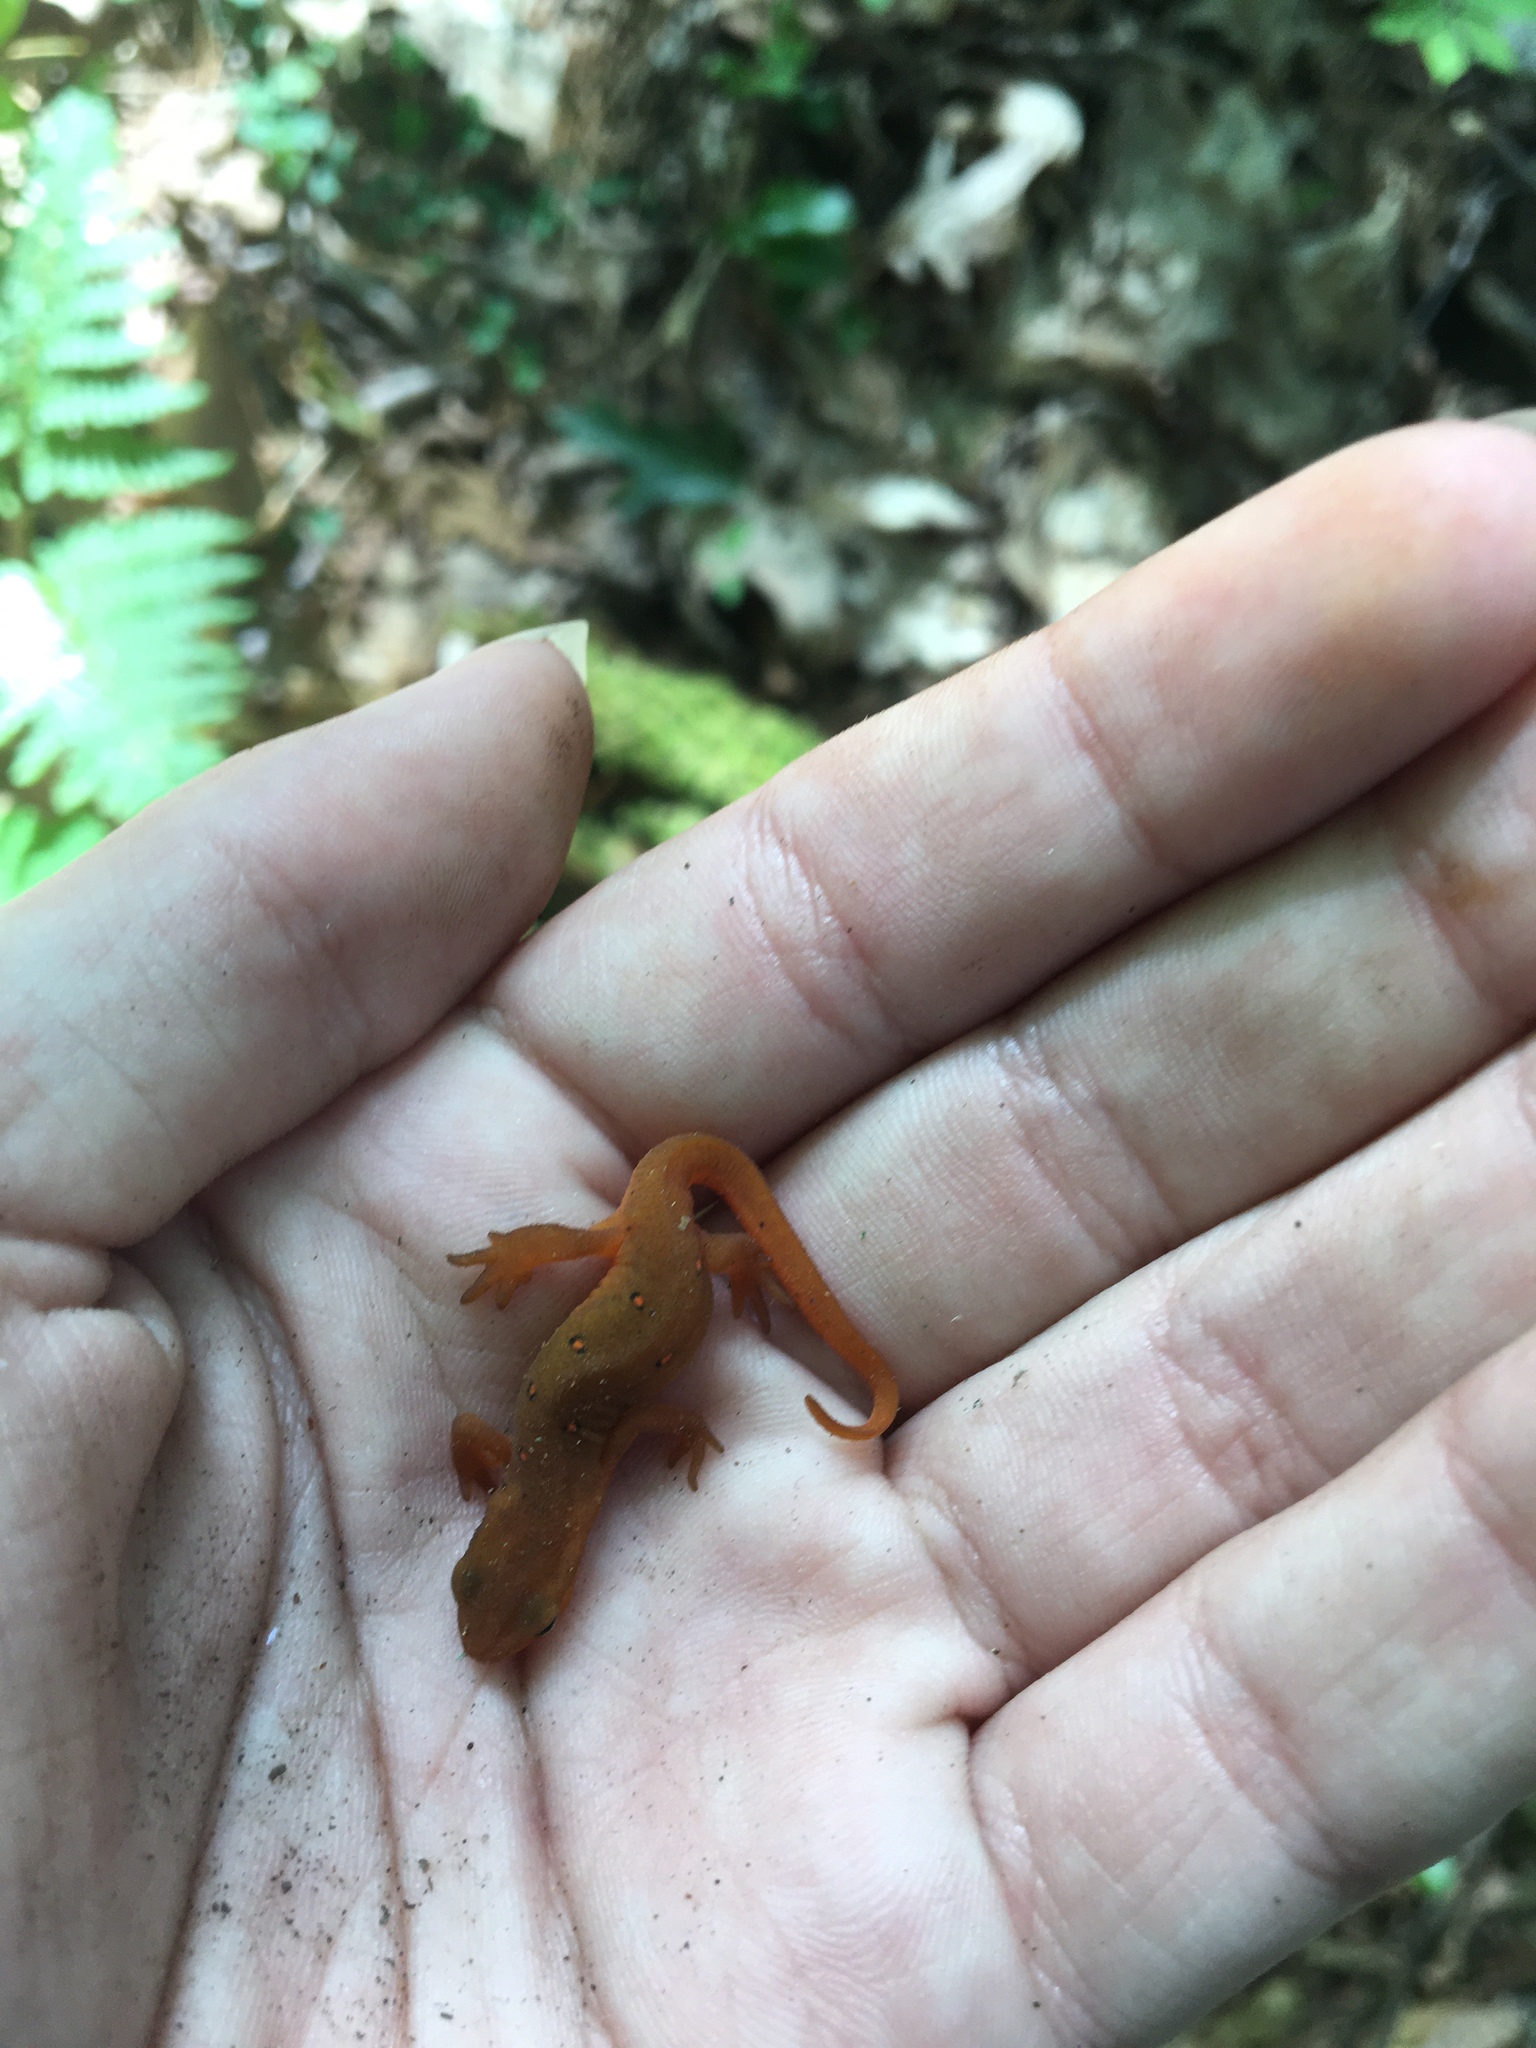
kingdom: Animalia
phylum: Chordata
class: Amphibia
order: Caudata
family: Salamandridae
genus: Notophthalmus
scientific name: Notophthalmus viridescens
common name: Eastern newt
